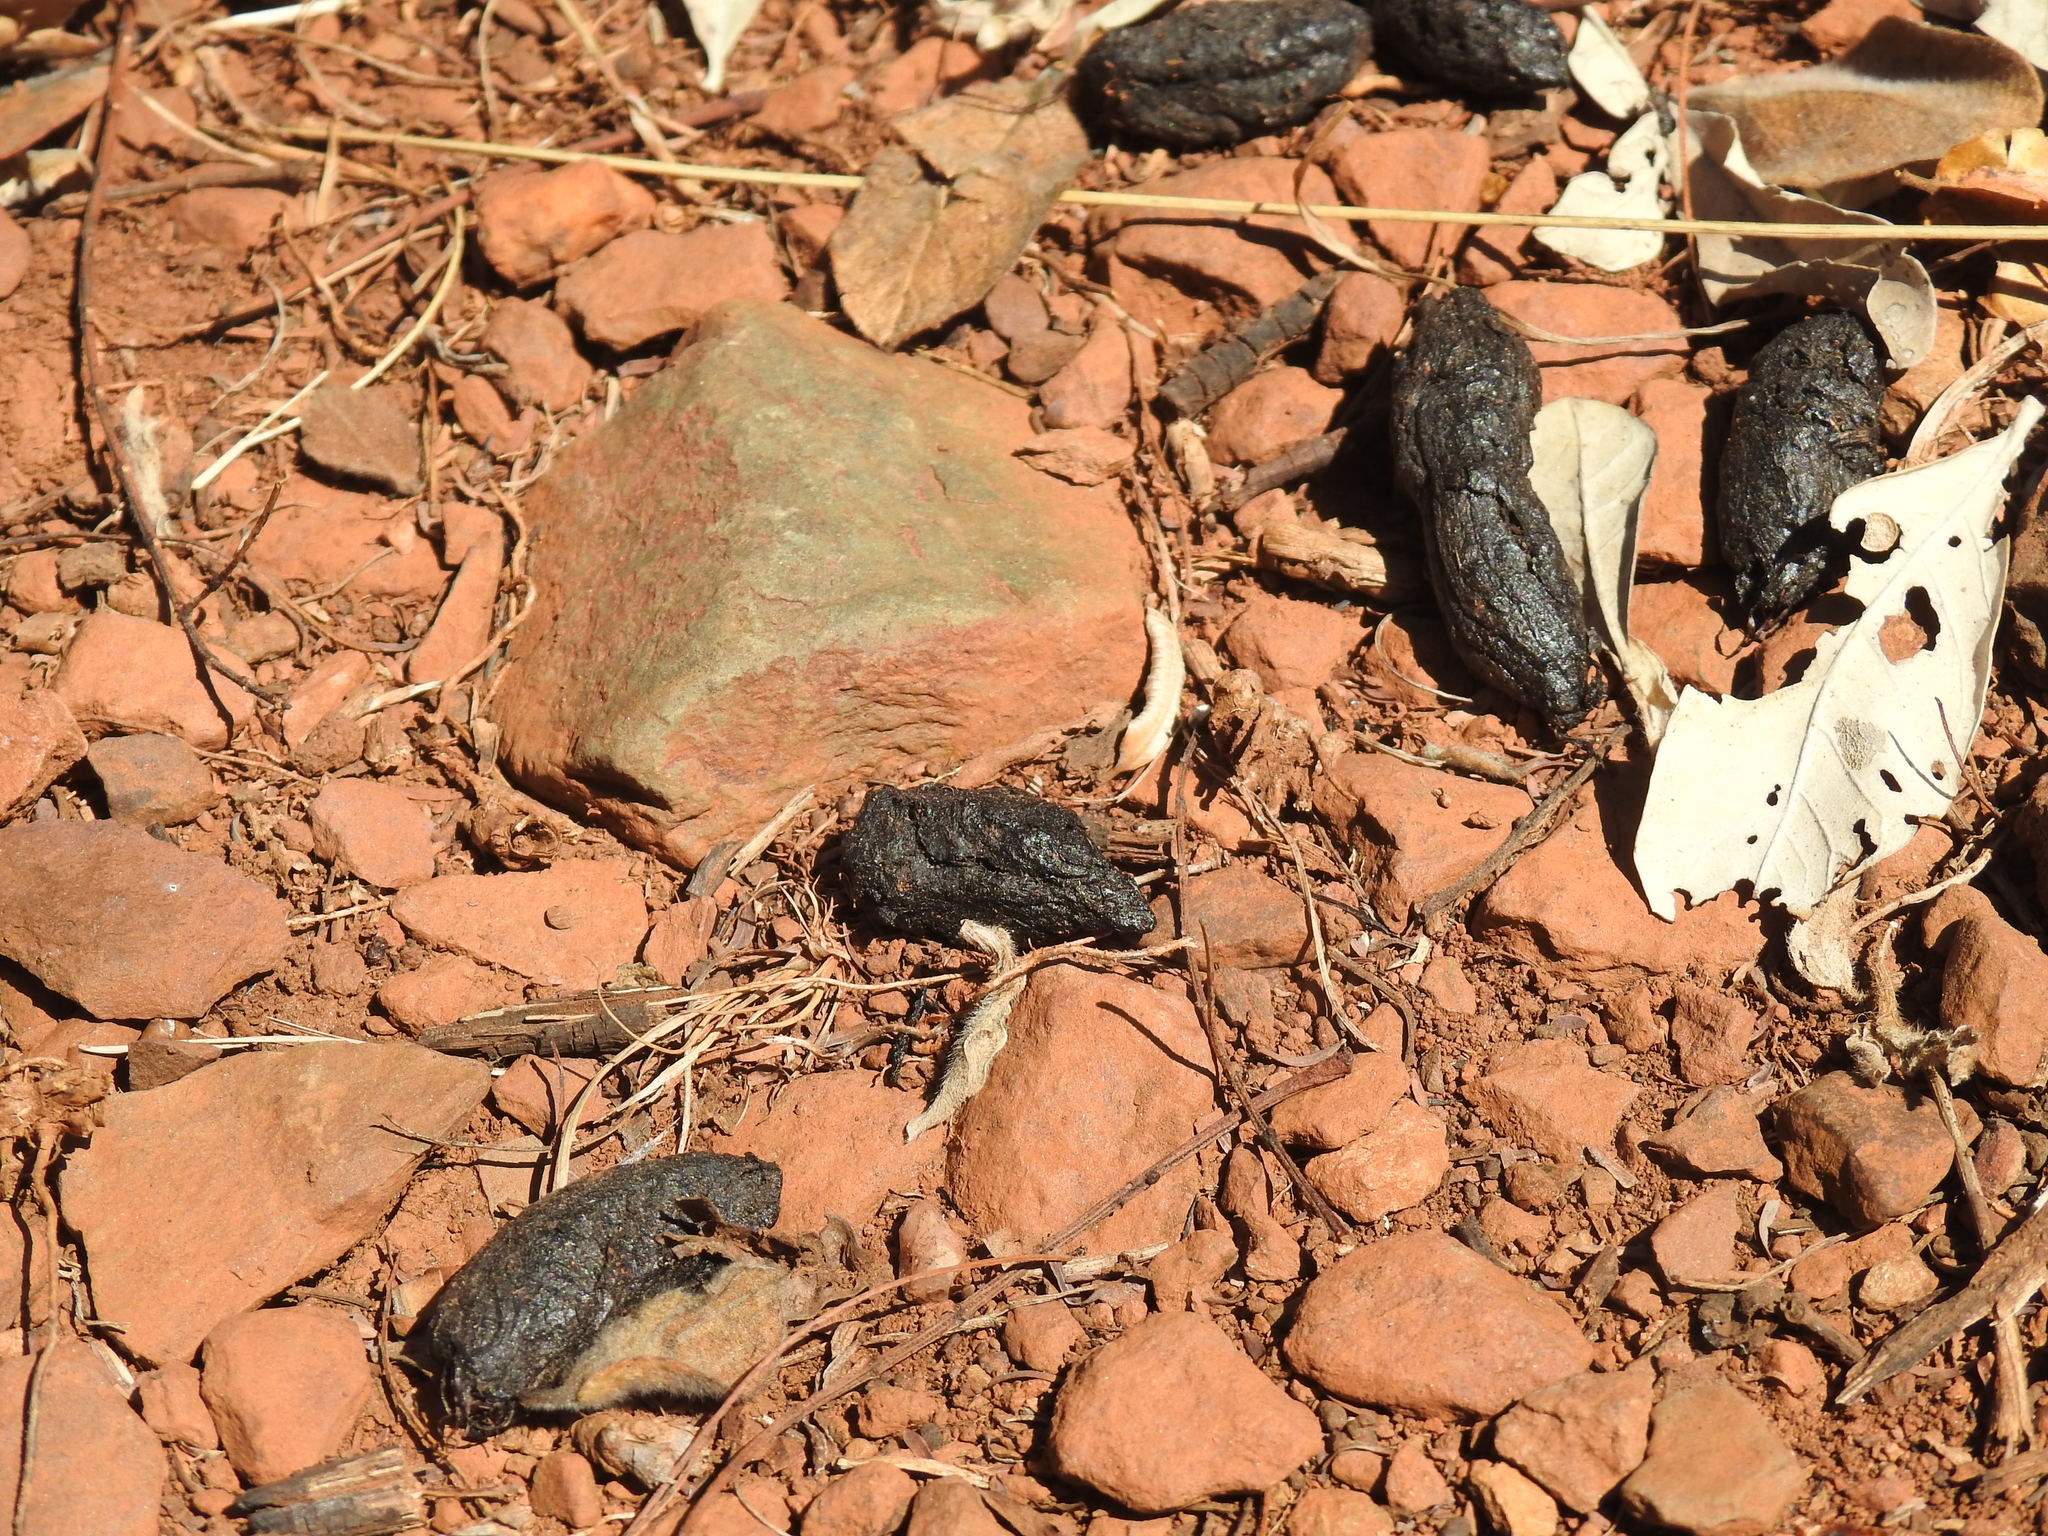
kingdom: Animalia
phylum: Chordata
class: Mammalia
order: Rodentia
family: Hystricidae
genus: Hystrix
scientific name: Hystrix africaeaustralis
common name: Cape porcupine
